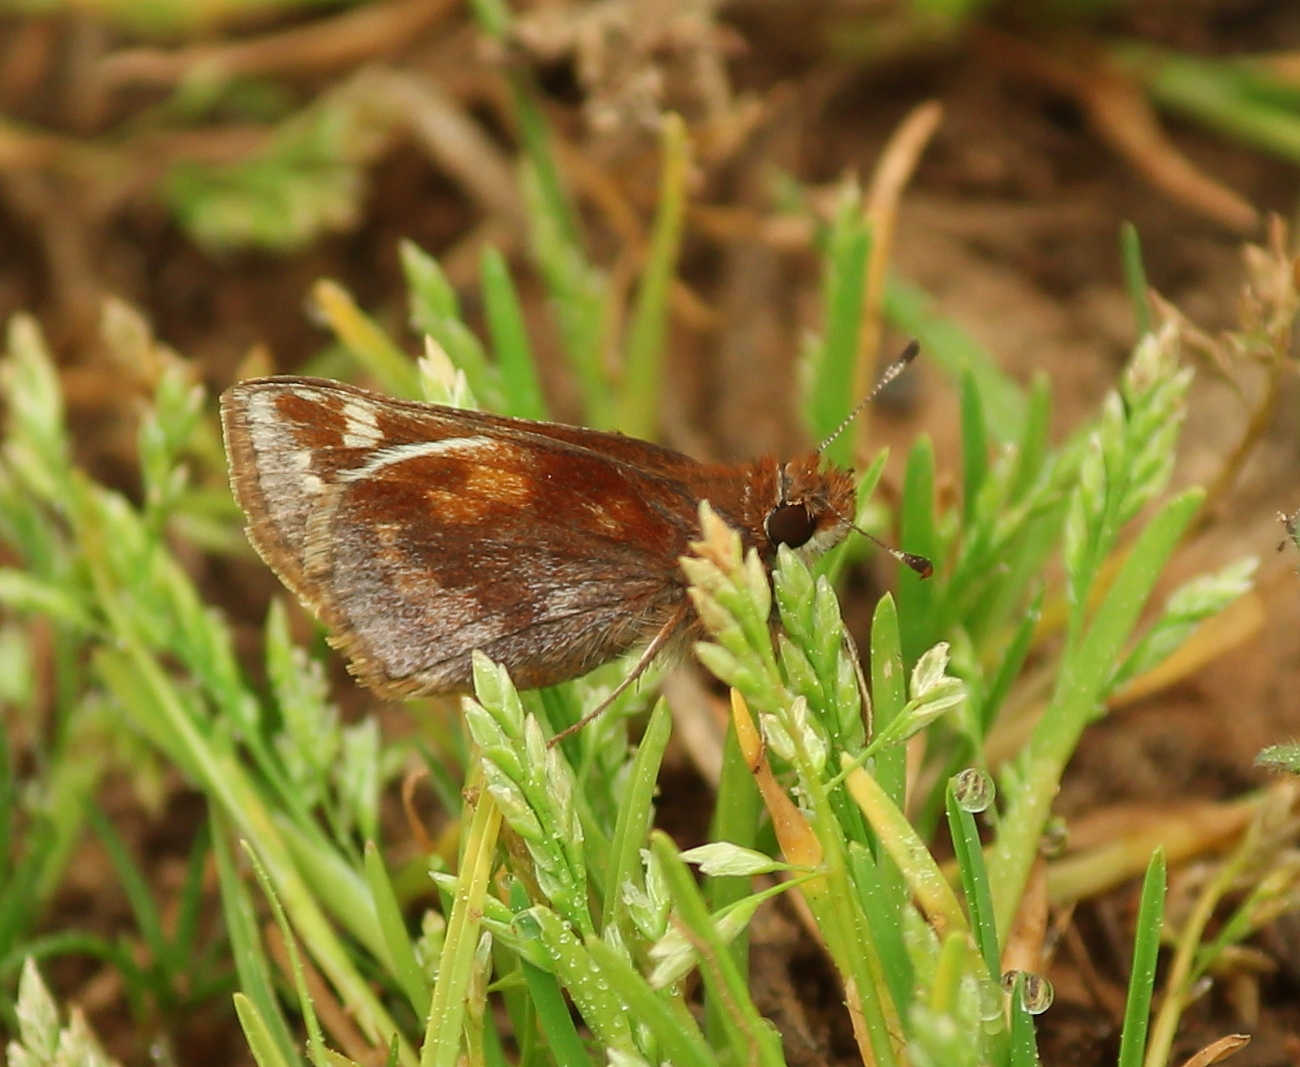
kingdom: Animalia
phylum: Arthropoda
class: Insecta
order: Lepidoptera
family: Hesperiidae
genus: Lon
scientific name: Lon zabulon
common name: Zabulon skipper
